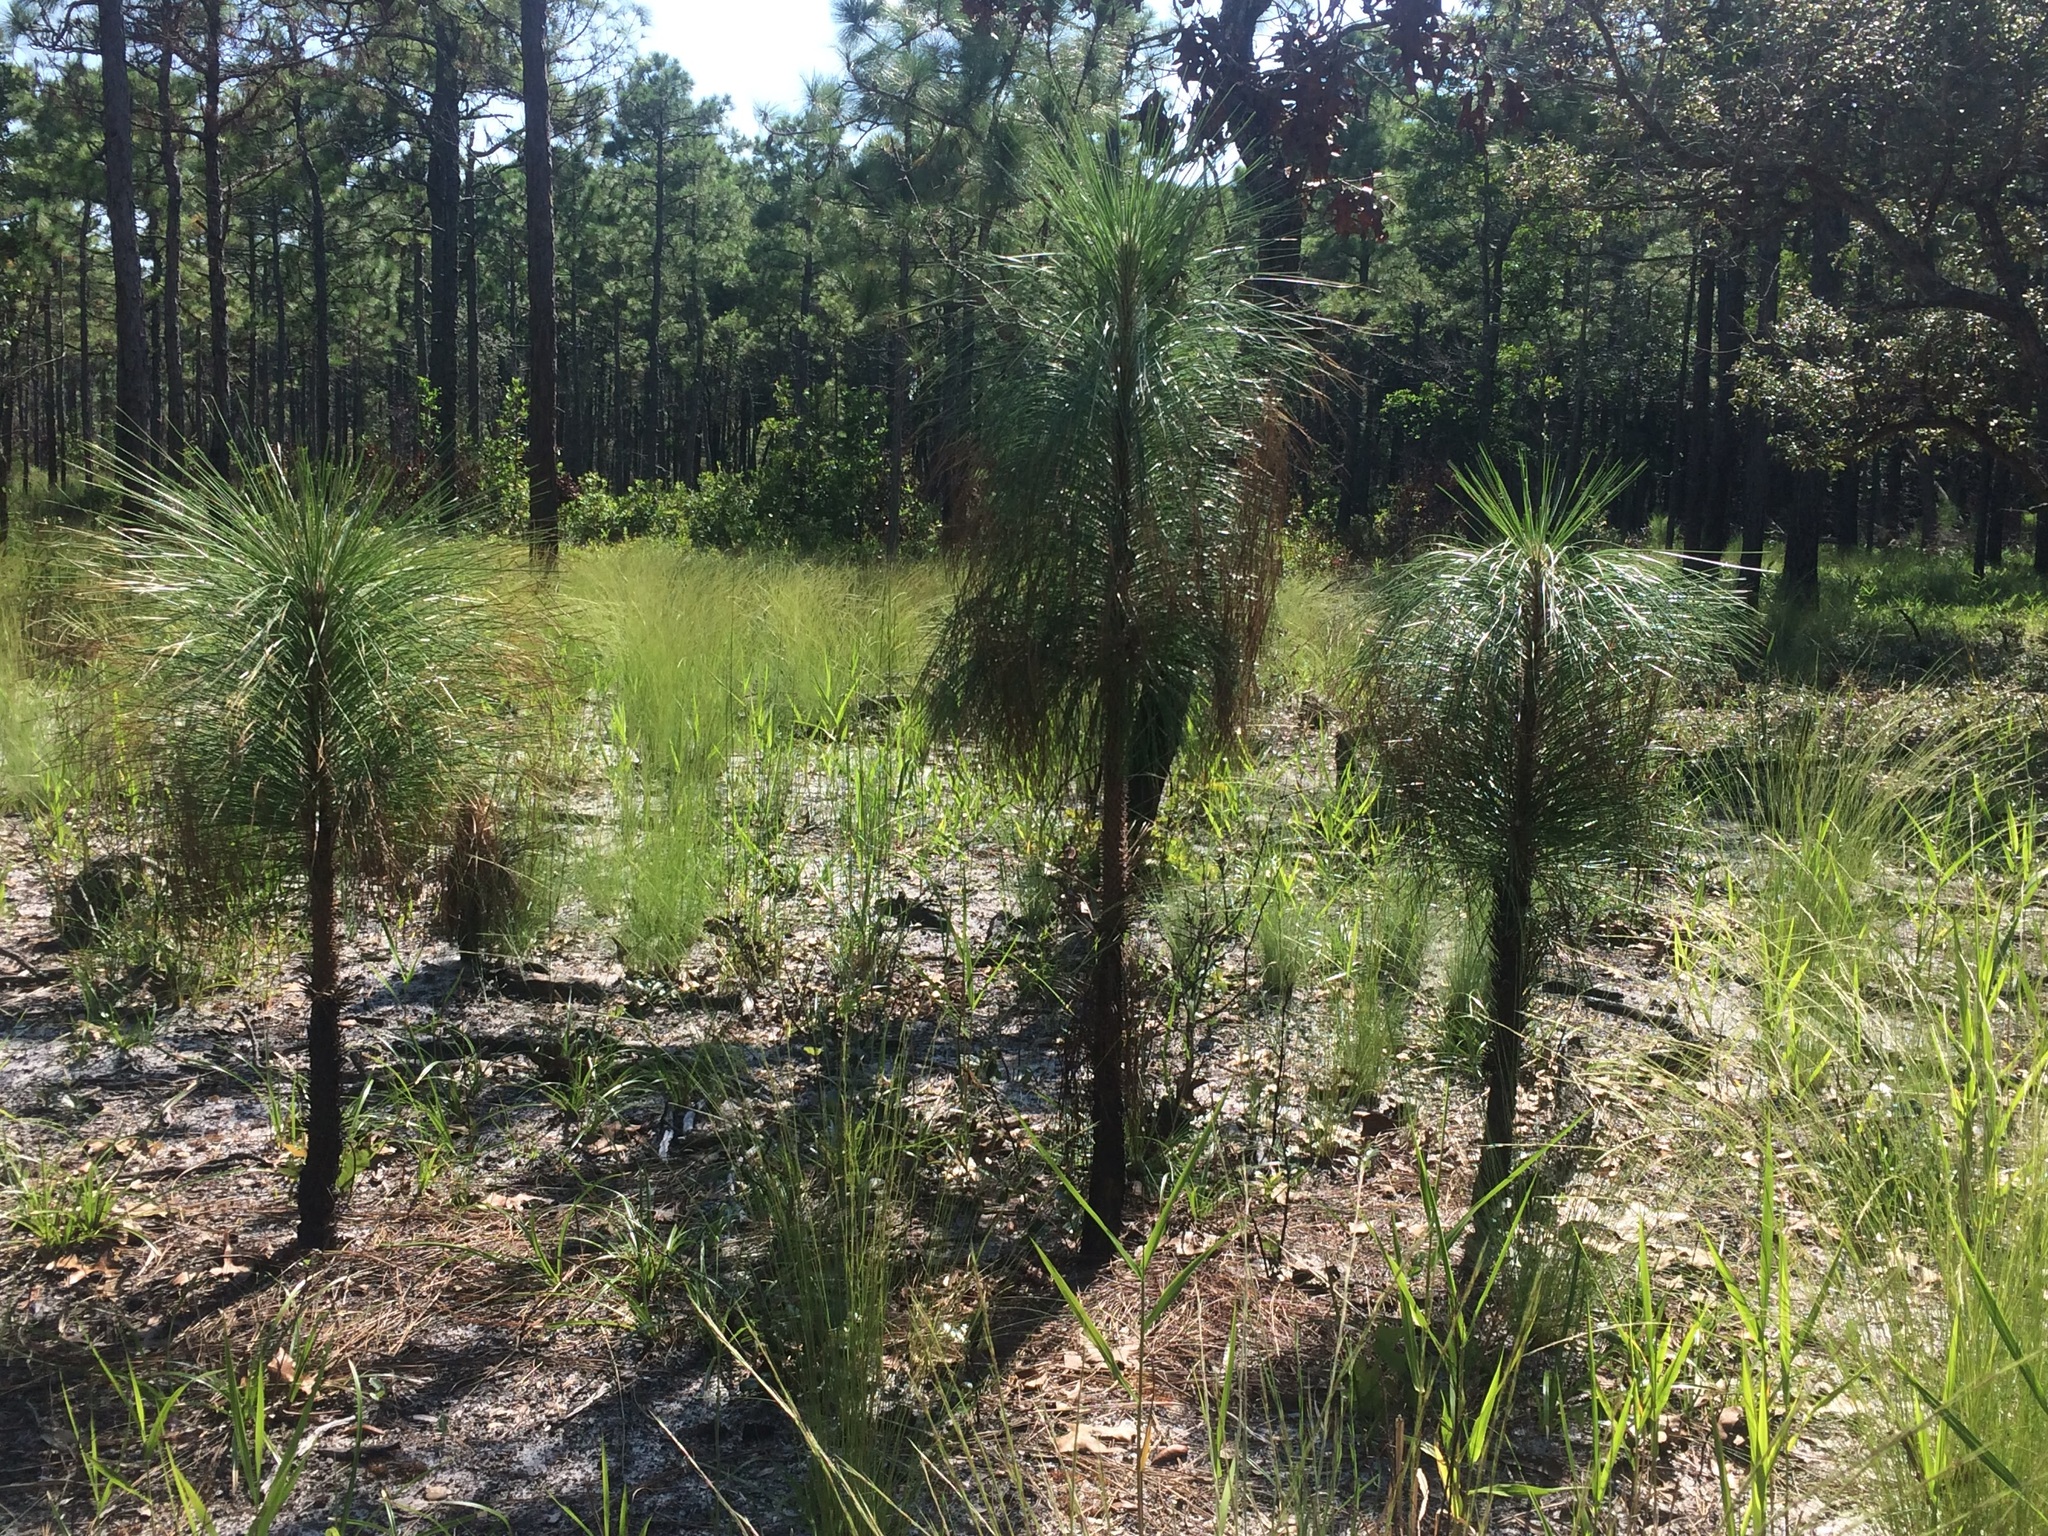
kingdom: Plantae
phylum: Tracheophyta
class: Pinopsida
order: Pinales
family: Pinaceae
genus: Pinus
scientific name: Pinus palustris
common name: Longleaf pine
